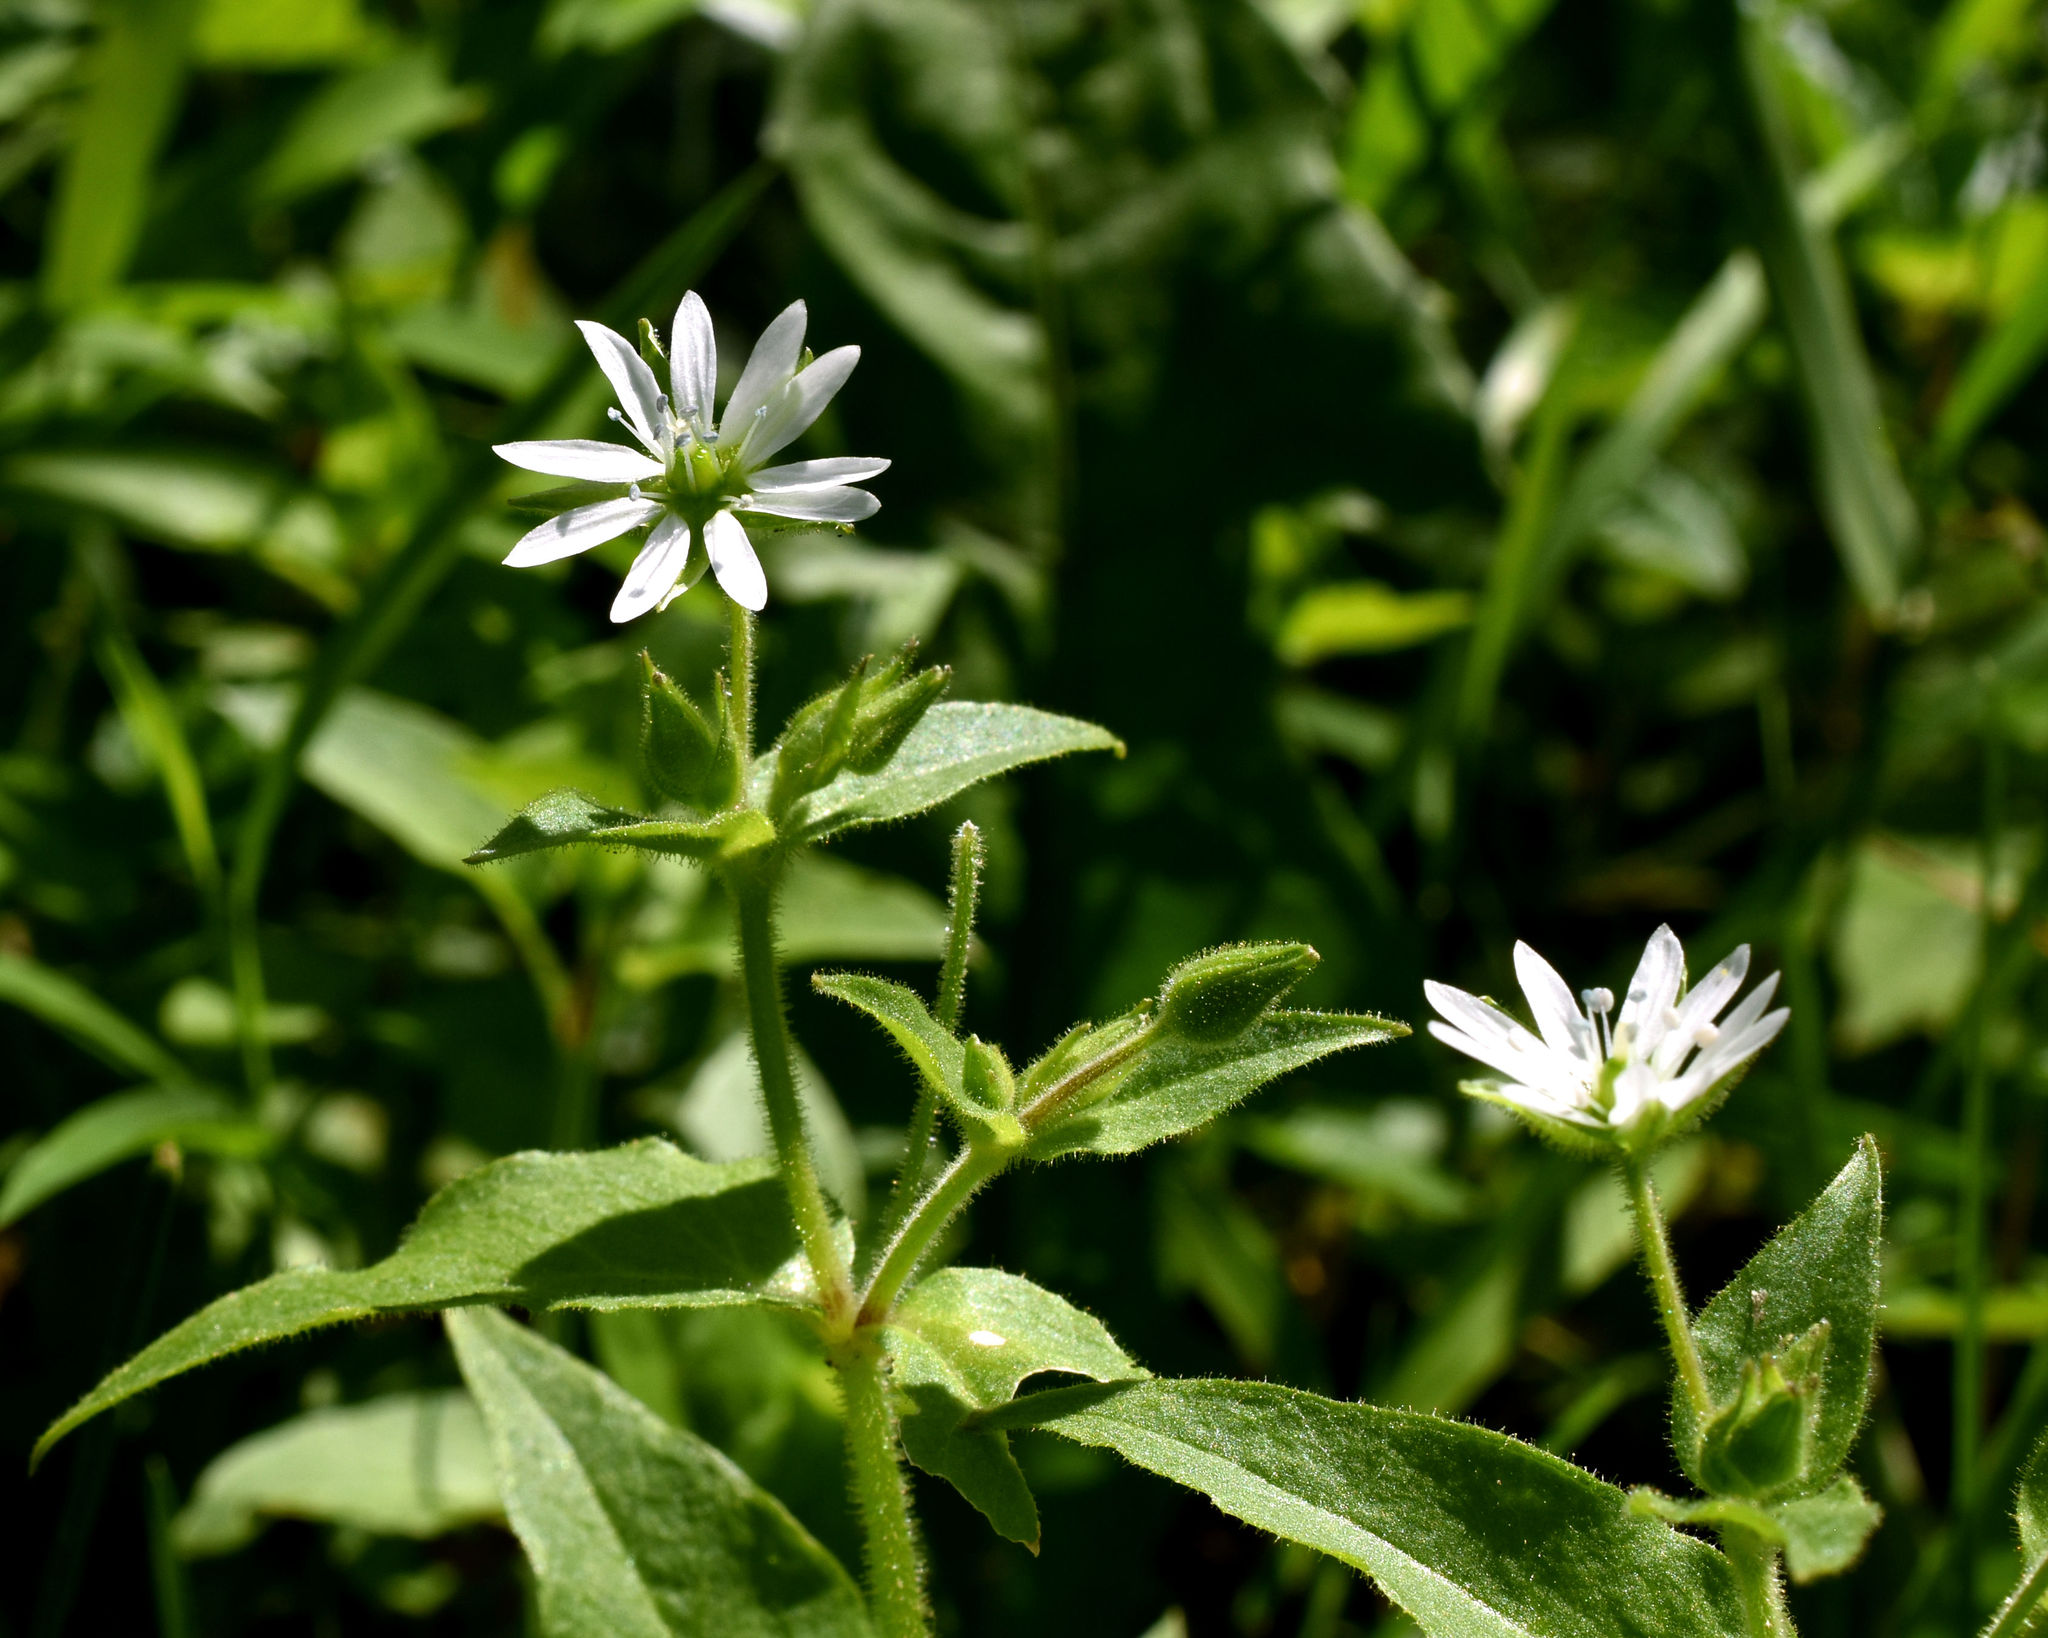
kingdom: Plantae
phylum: Tracheophyta
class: Magnoliopsida
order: Caryophyllales
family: Caryophyllaceae
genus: Stellaria
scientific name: Stellaria aquatica
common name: Water chickweed
